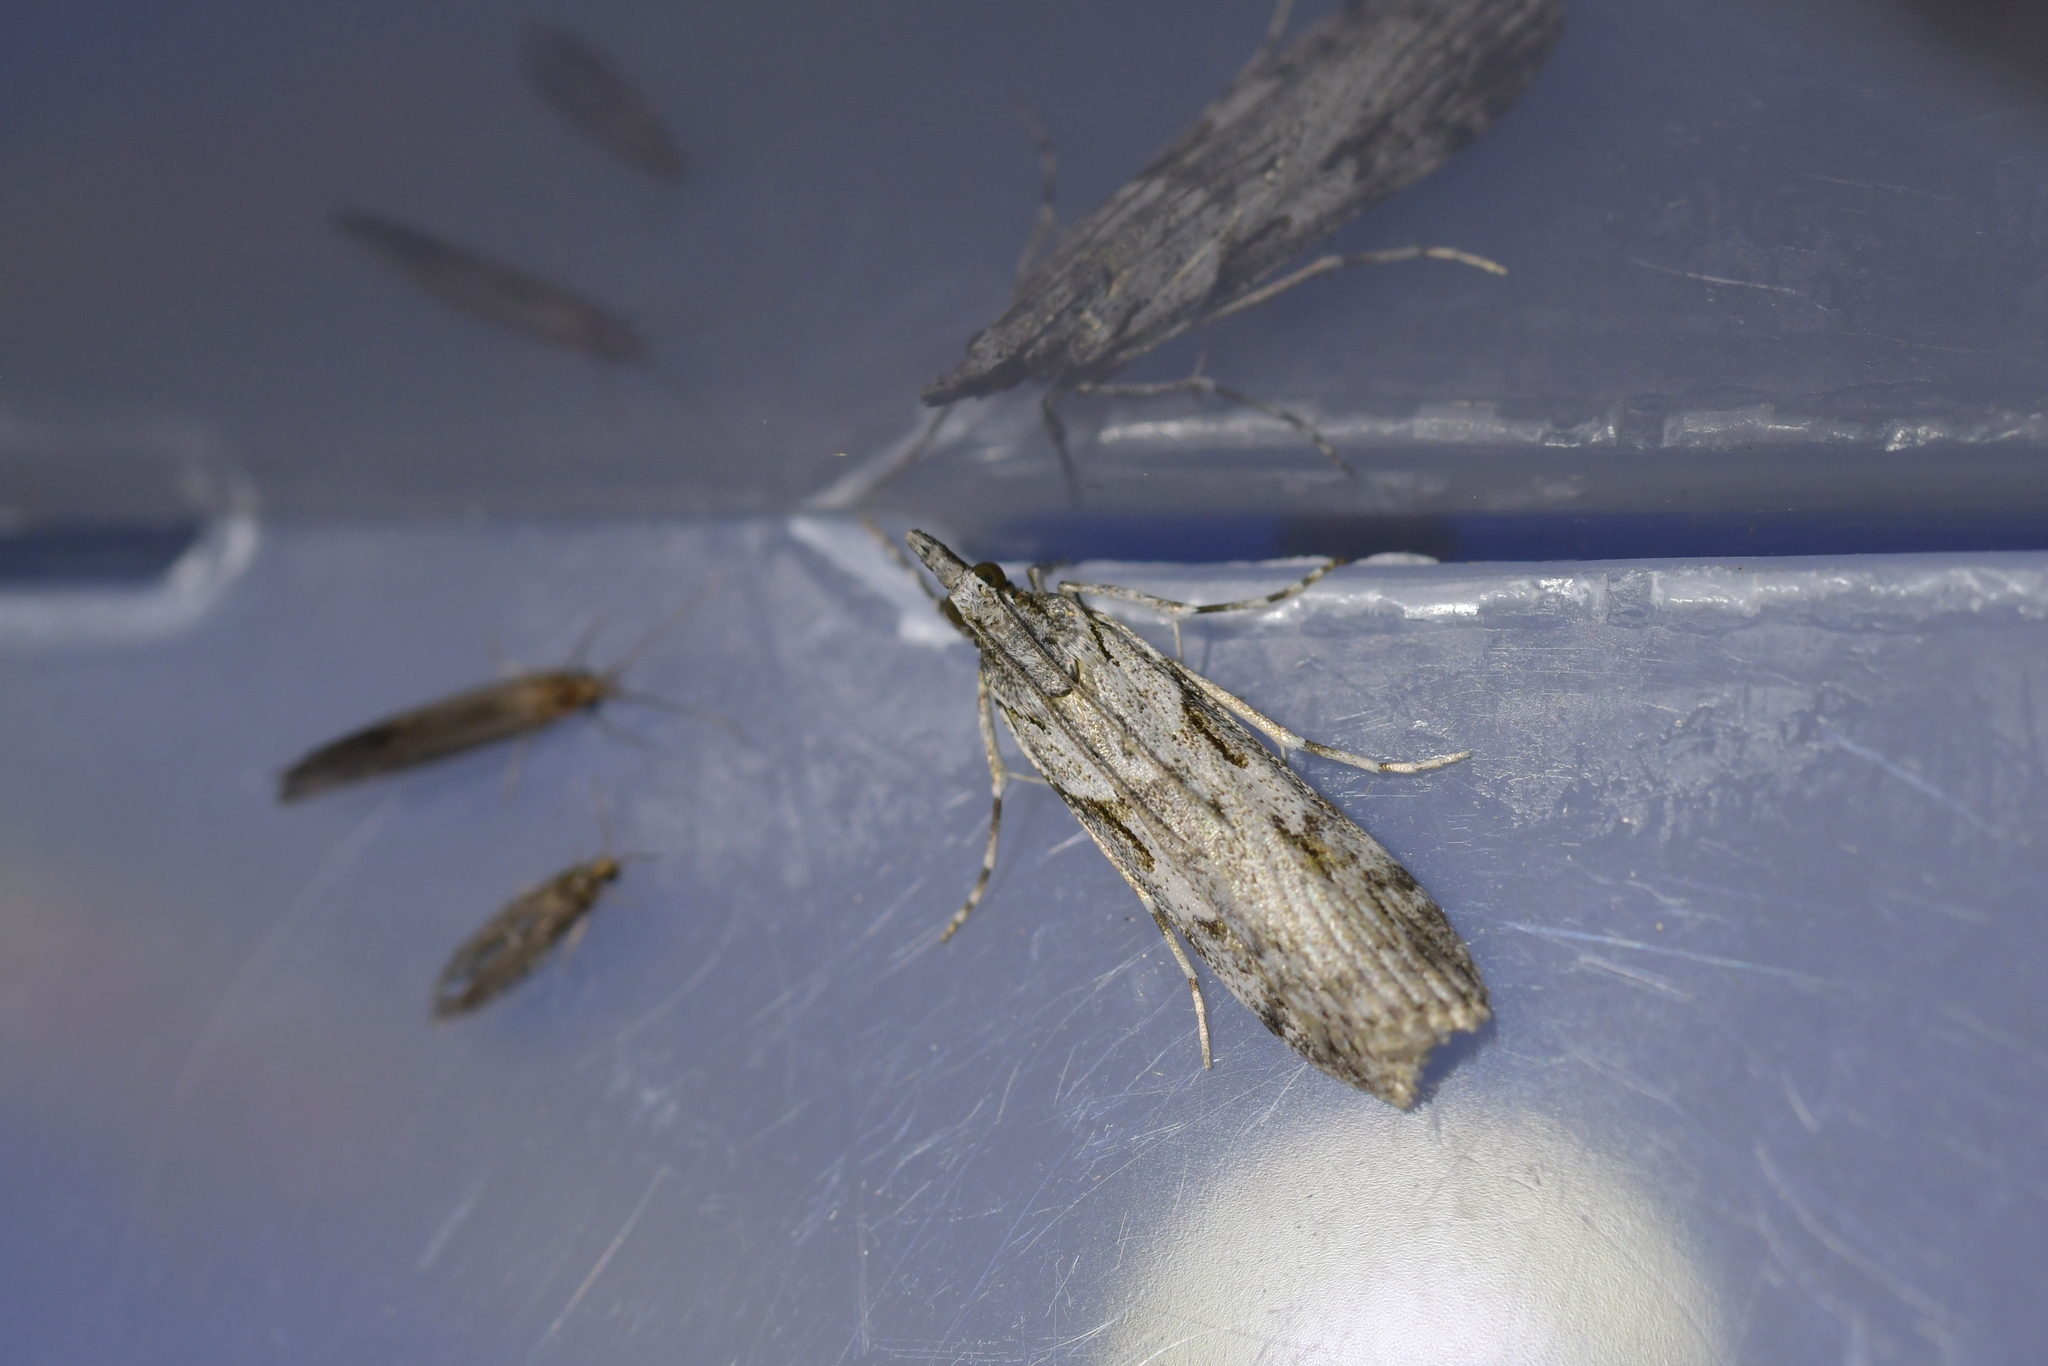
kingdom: Animalia
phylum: Arthropoda
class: Insecta
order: Lepidoptera
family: Crambidae
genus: Scoparia
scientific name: Scoparia halopis
